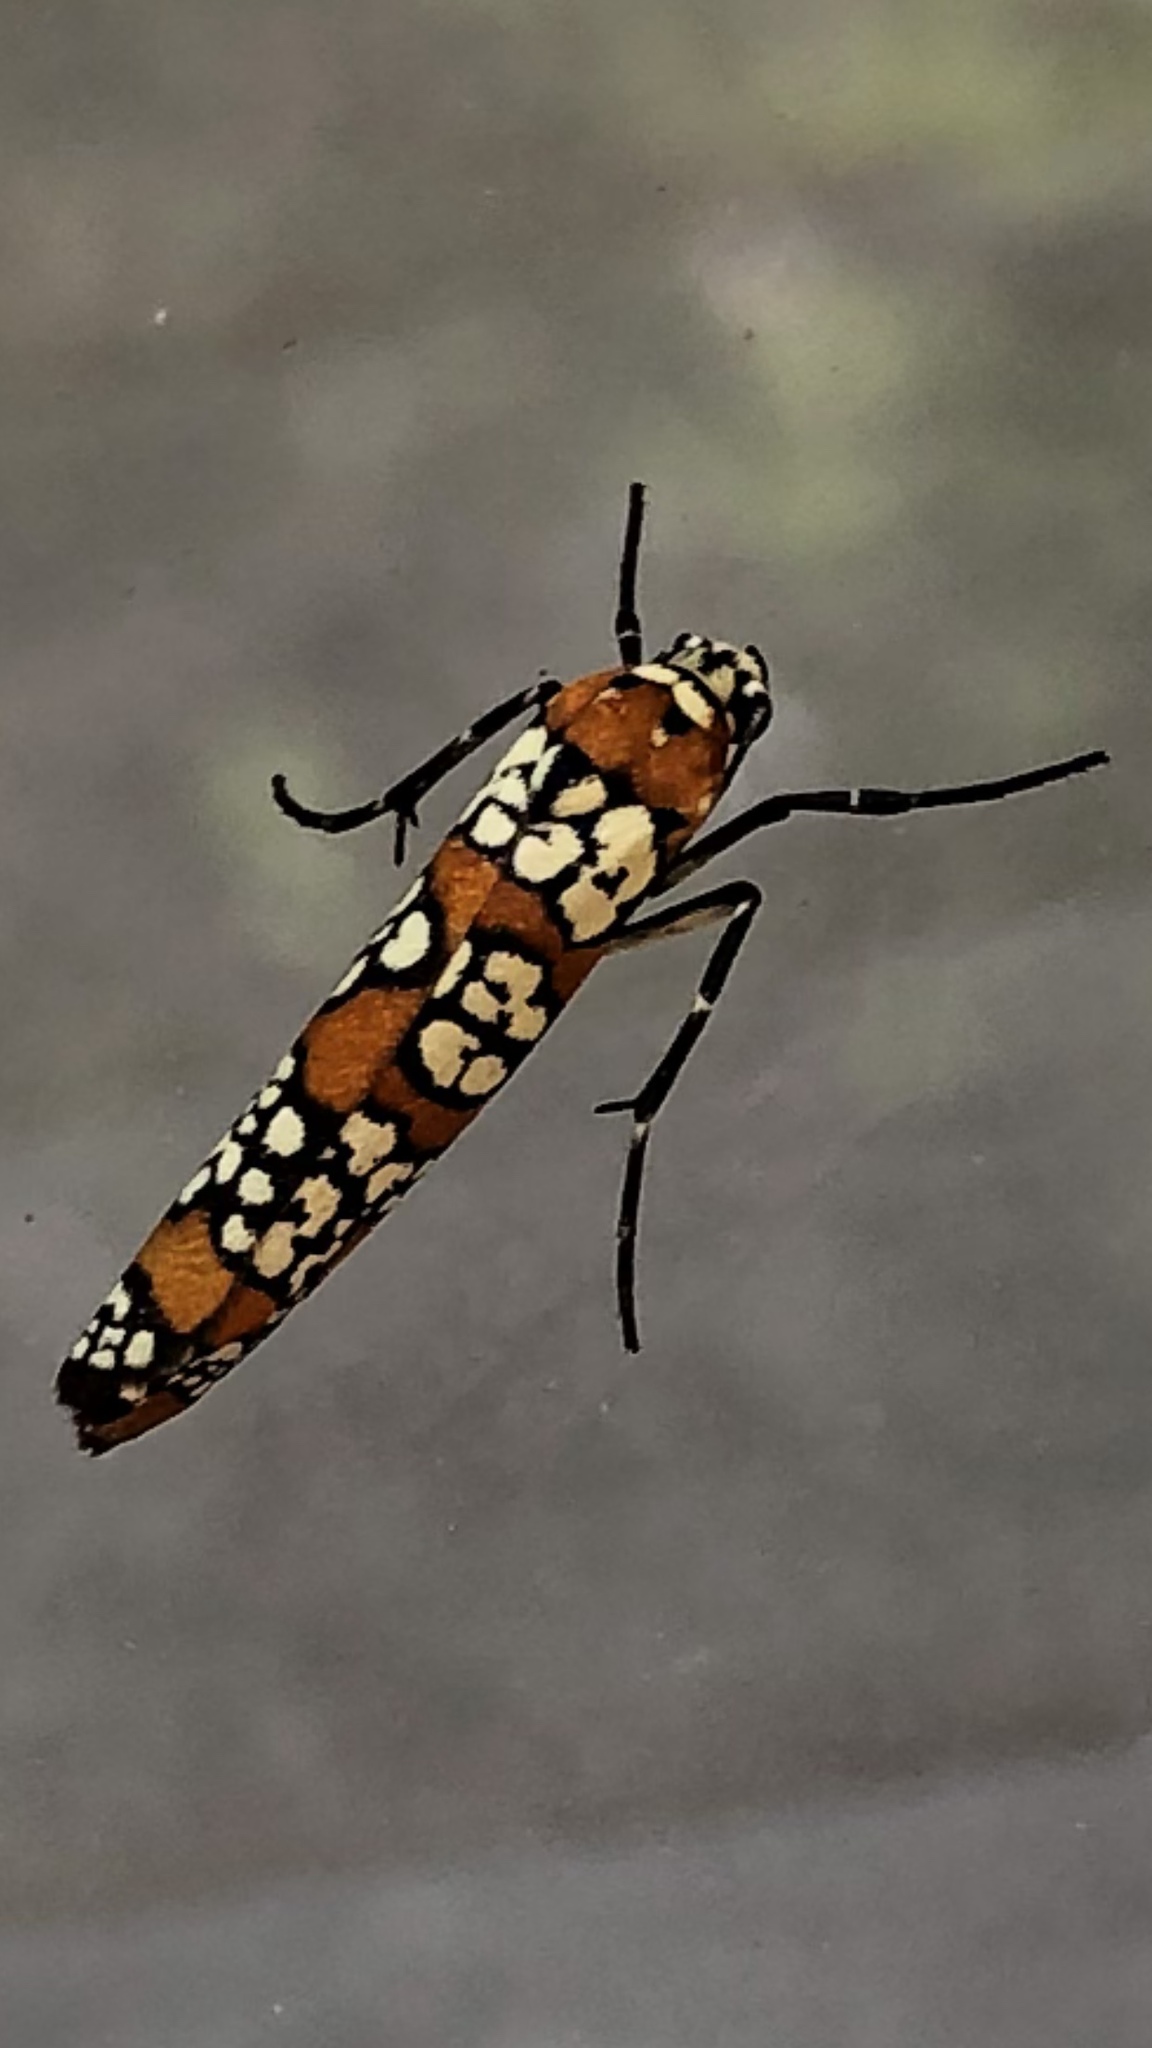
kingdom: Animalia
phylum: Arthropoda
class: Insecta
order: Lepidoptera
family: Attevidae
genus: Atteva
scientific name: Atteva punctella
